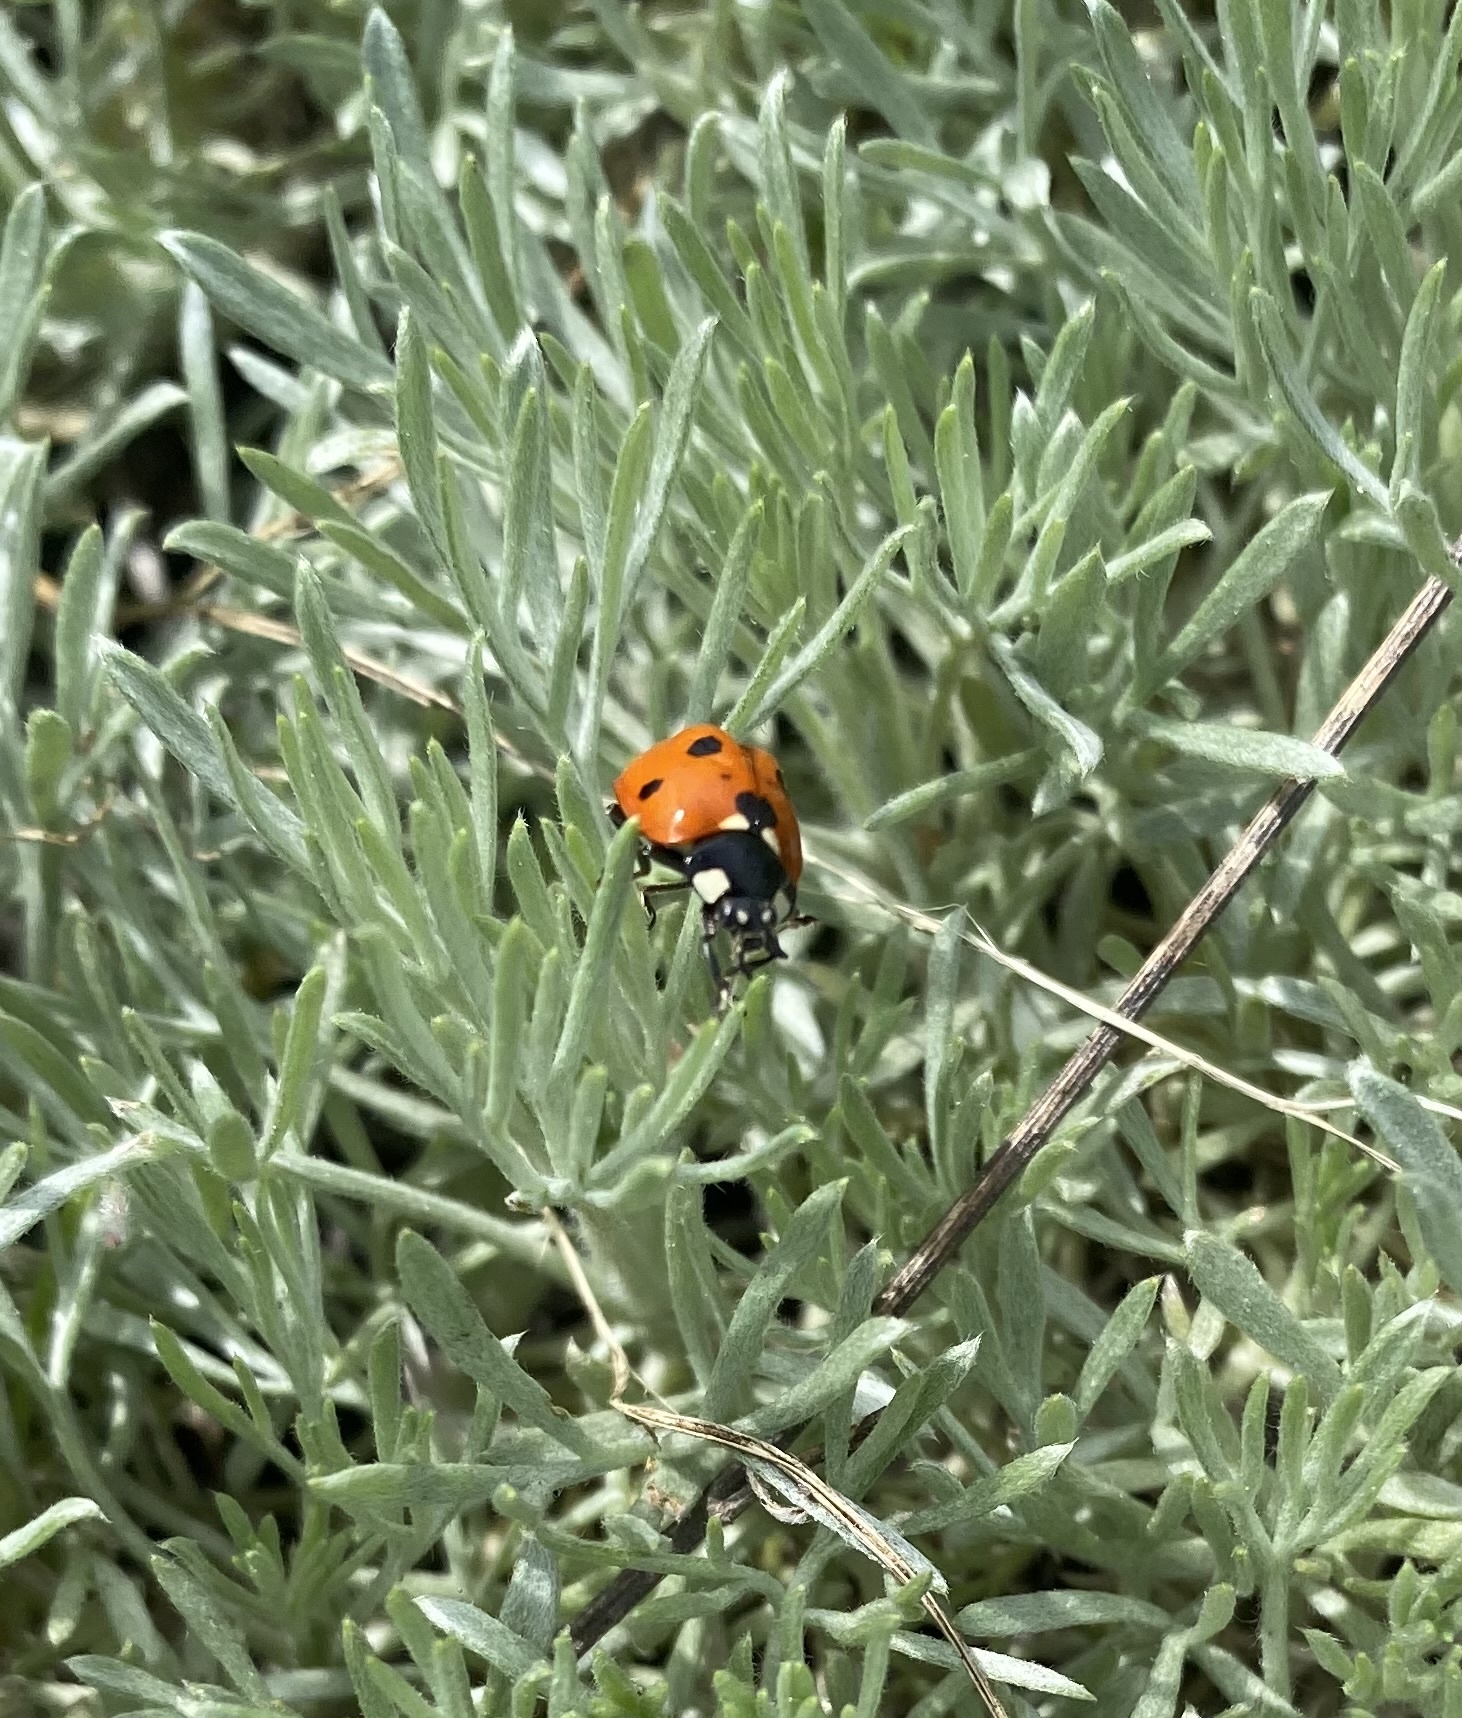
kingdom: Animalia
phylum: Arthropoda
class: Insecta
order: Coleoptera
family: Coccinellidae
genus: Coccinella
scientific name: Coccinella septempunctata
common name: Sevenspotted lady beetle
